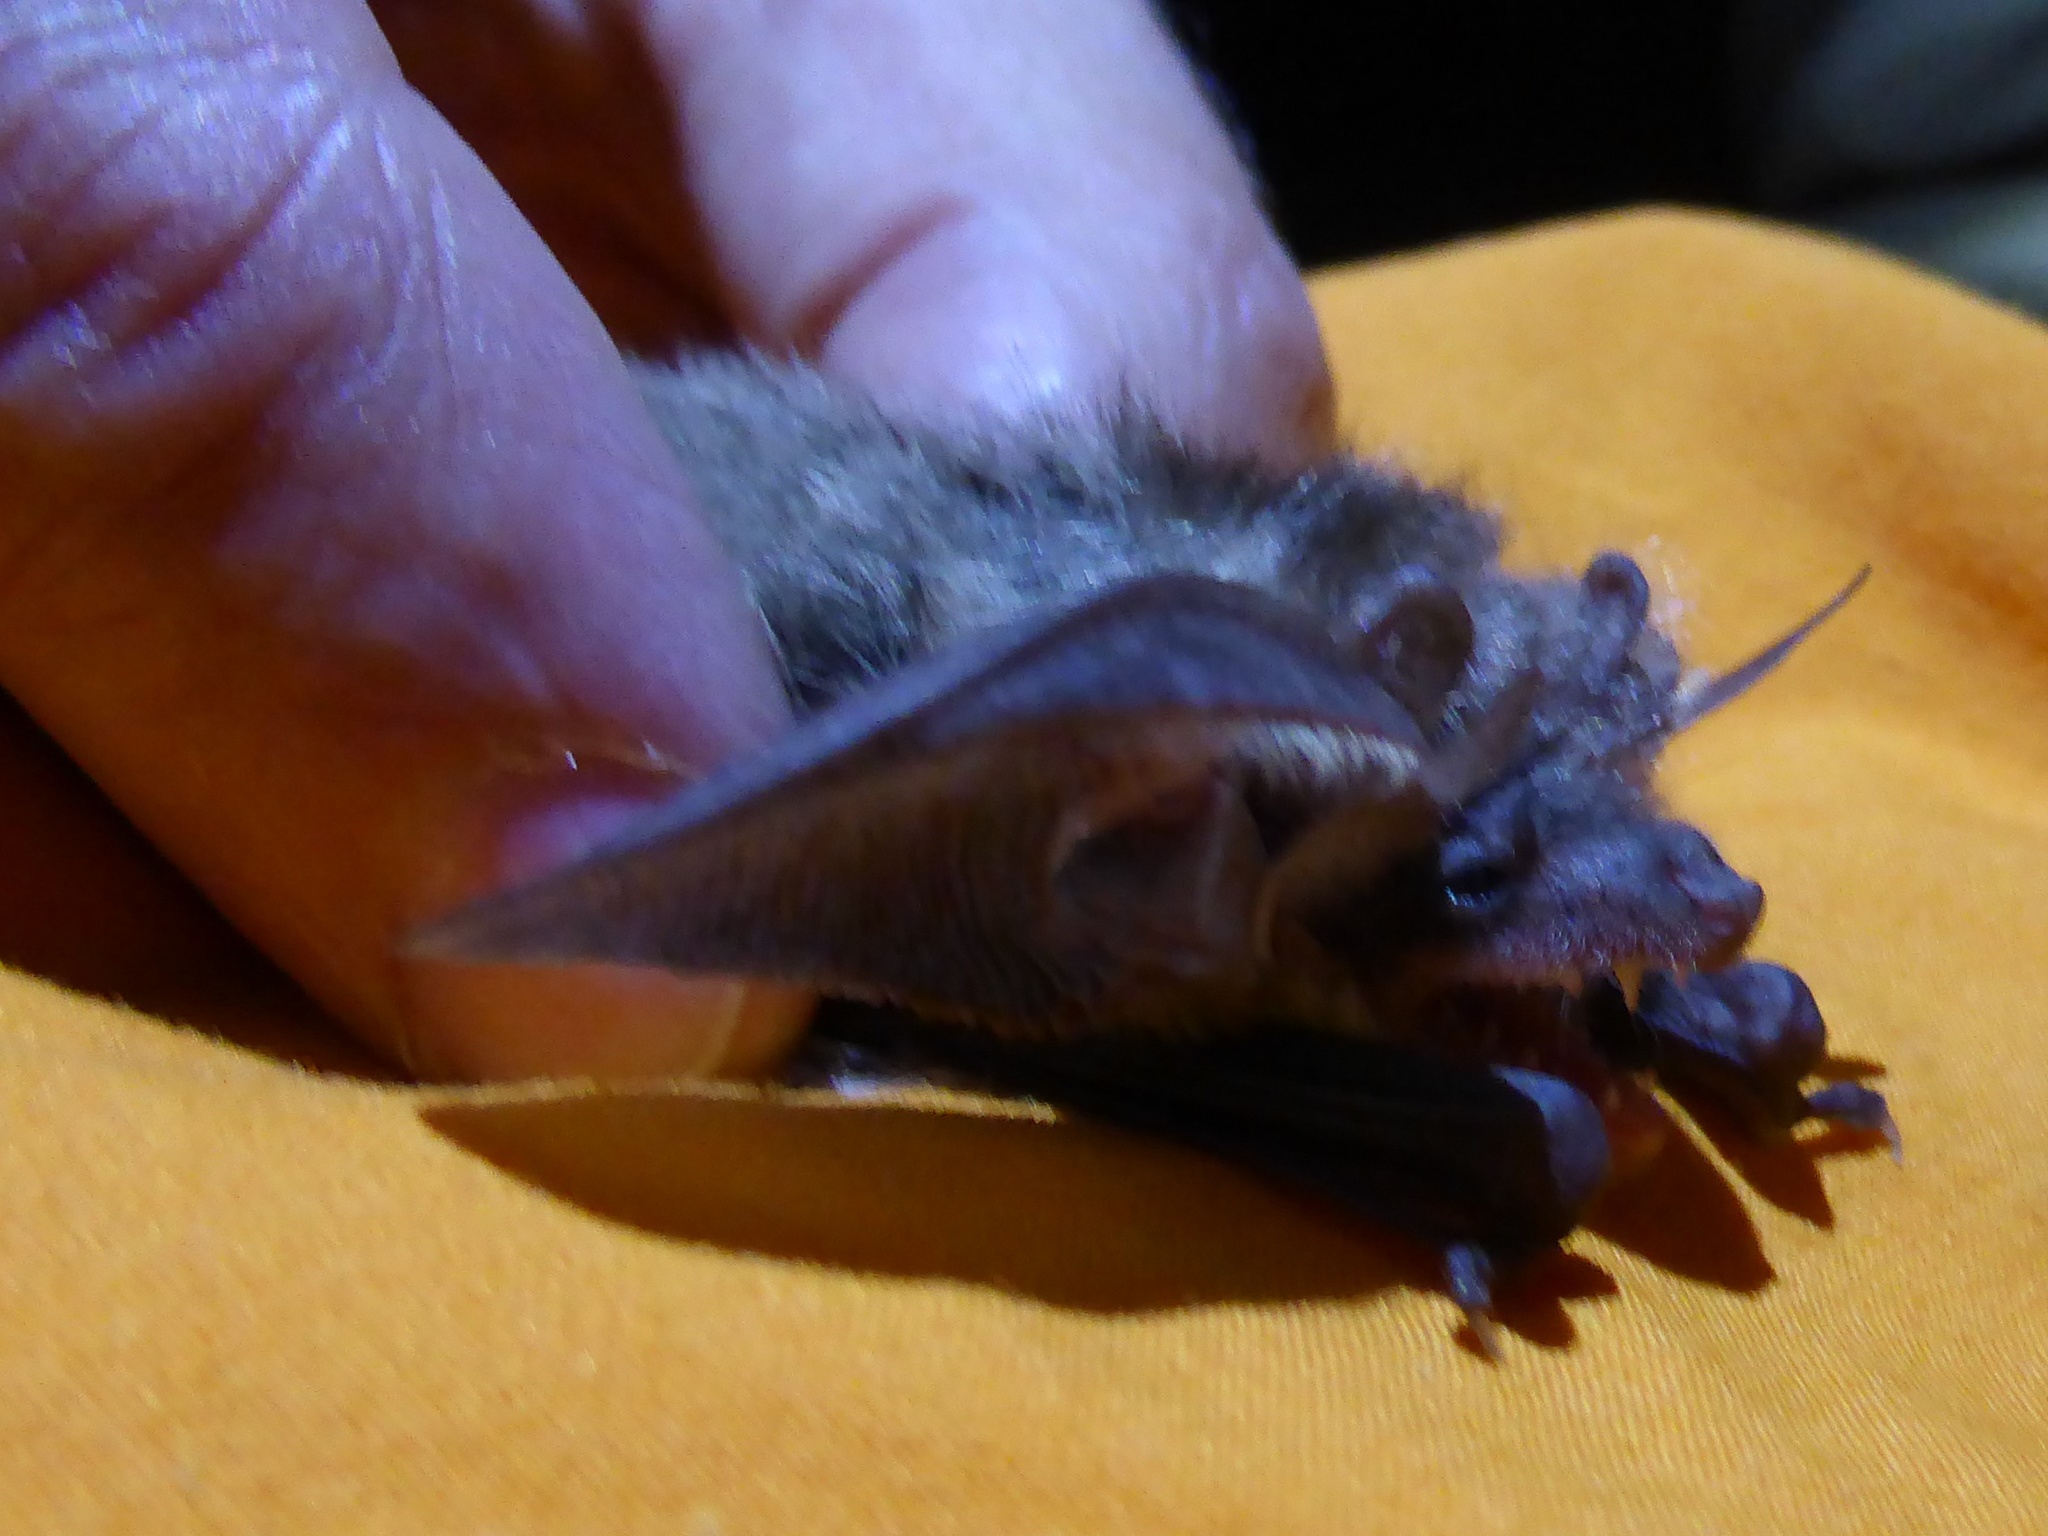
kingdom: Animalia
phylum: Chordata
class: Mammalia
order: Chiroptera
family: Vespertilionidae
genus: Plecotus
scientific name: Plecotus austriacus
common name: Grey long-eared bat
